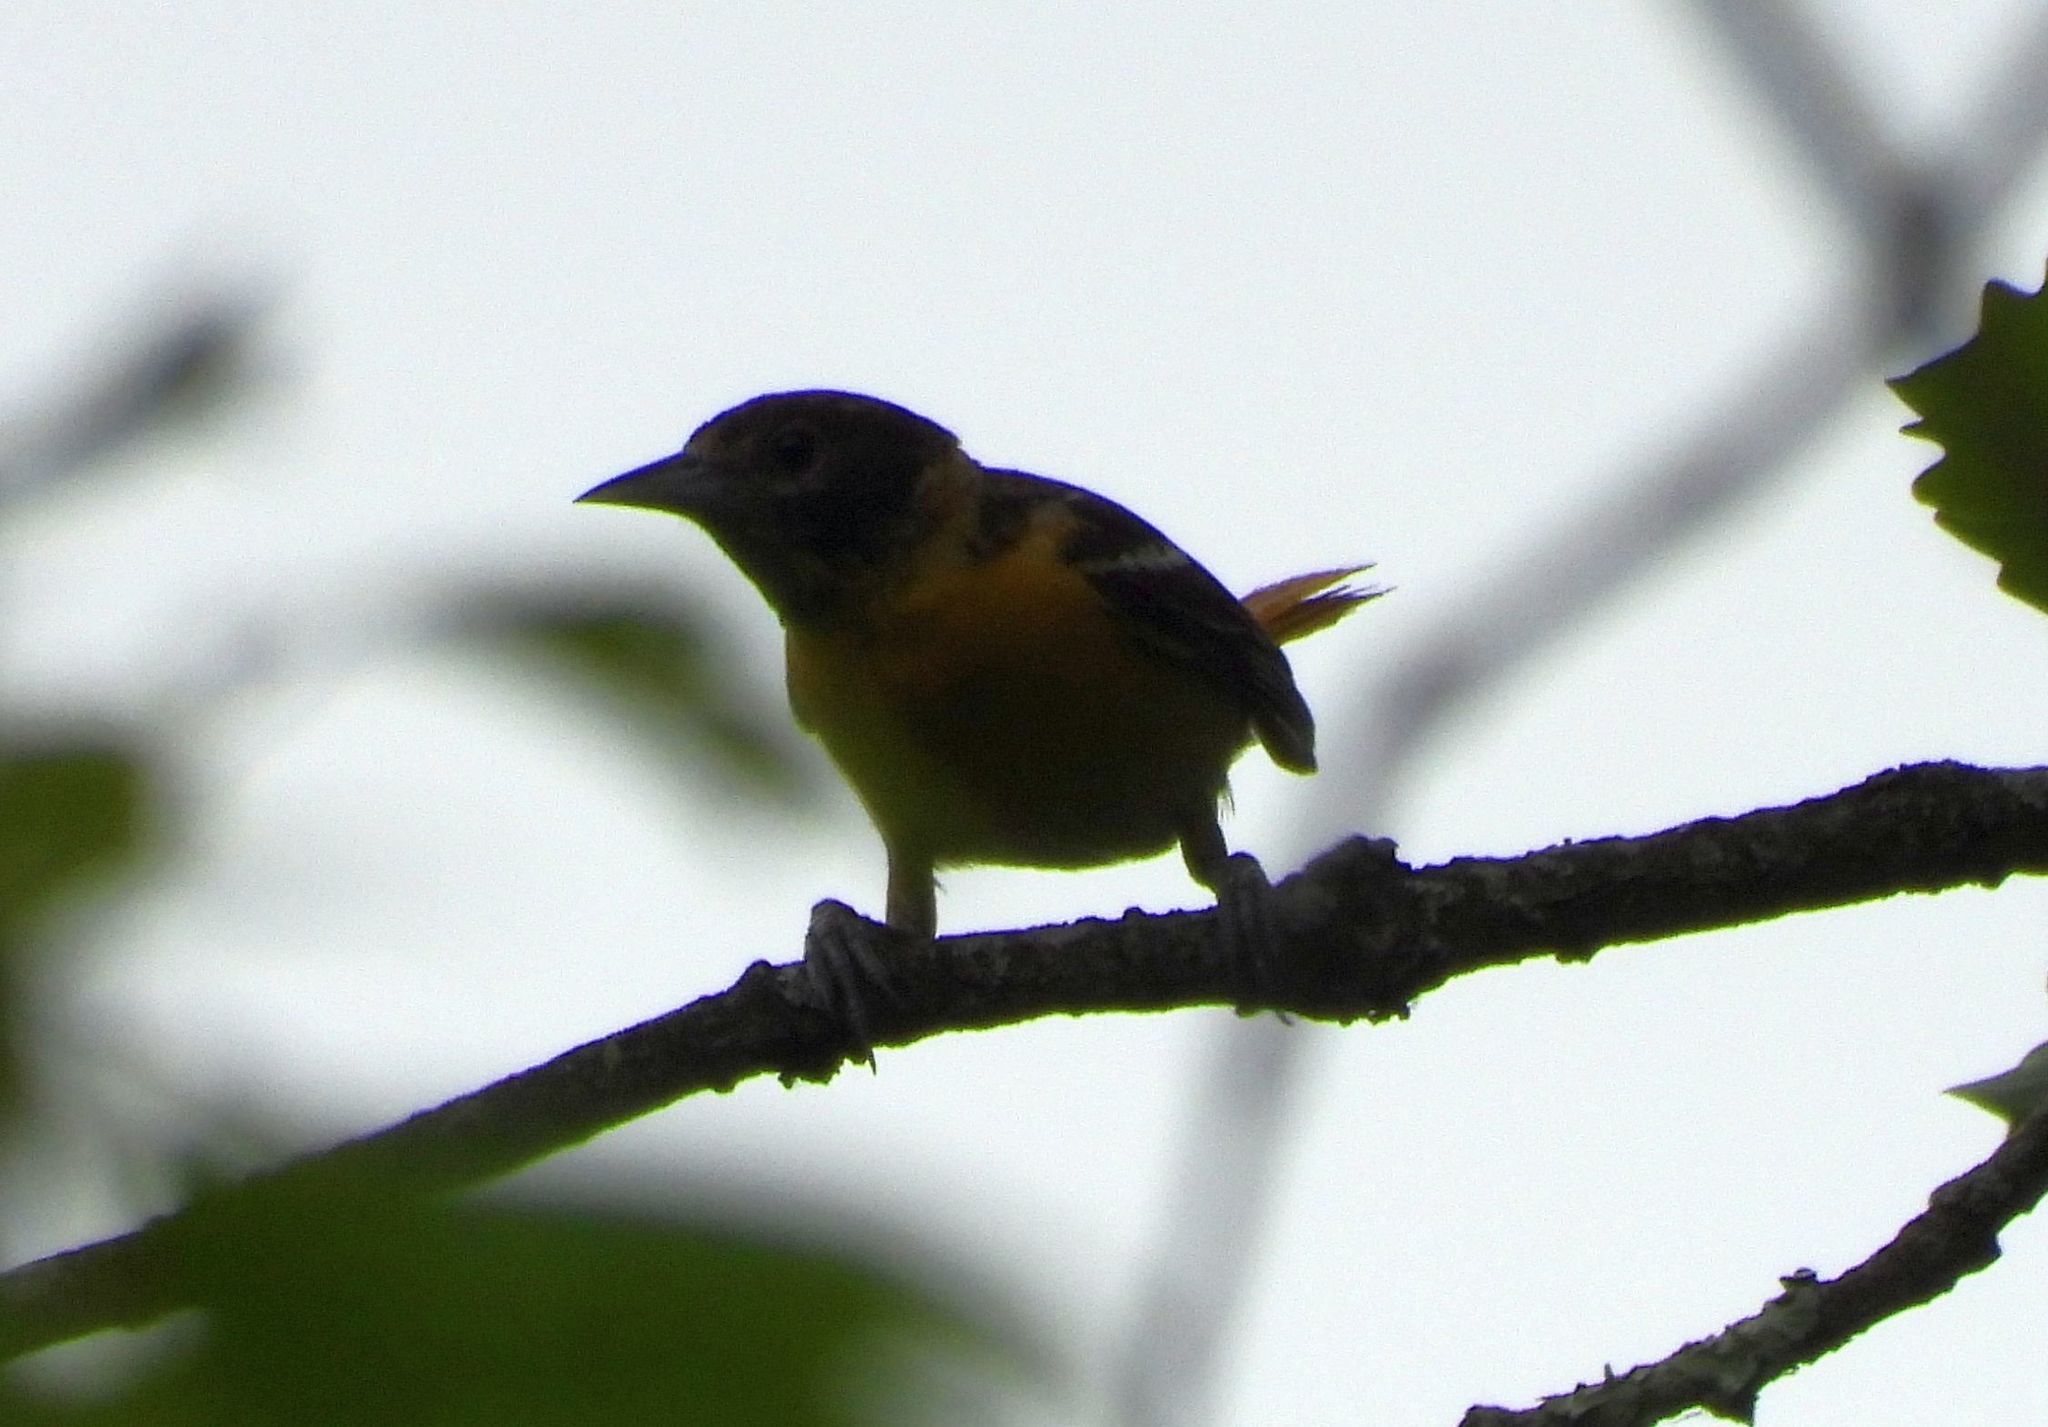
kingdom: Animalia
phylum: Chordata
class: Aves
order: Passeriformes
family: Icteridae
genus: Icterus
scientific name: Icterus galbula
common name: Baltimore oriole
